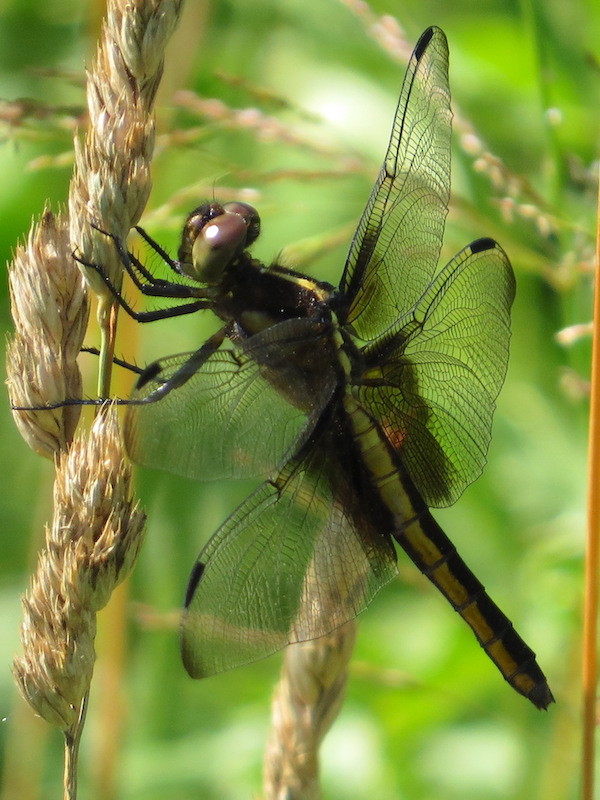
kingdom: Animalia
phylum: Arthropoda
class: Insecta
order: Odonata
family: Libellulidae
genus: Libellula
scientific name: Libellula luctuosa
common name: Widow skimmer
